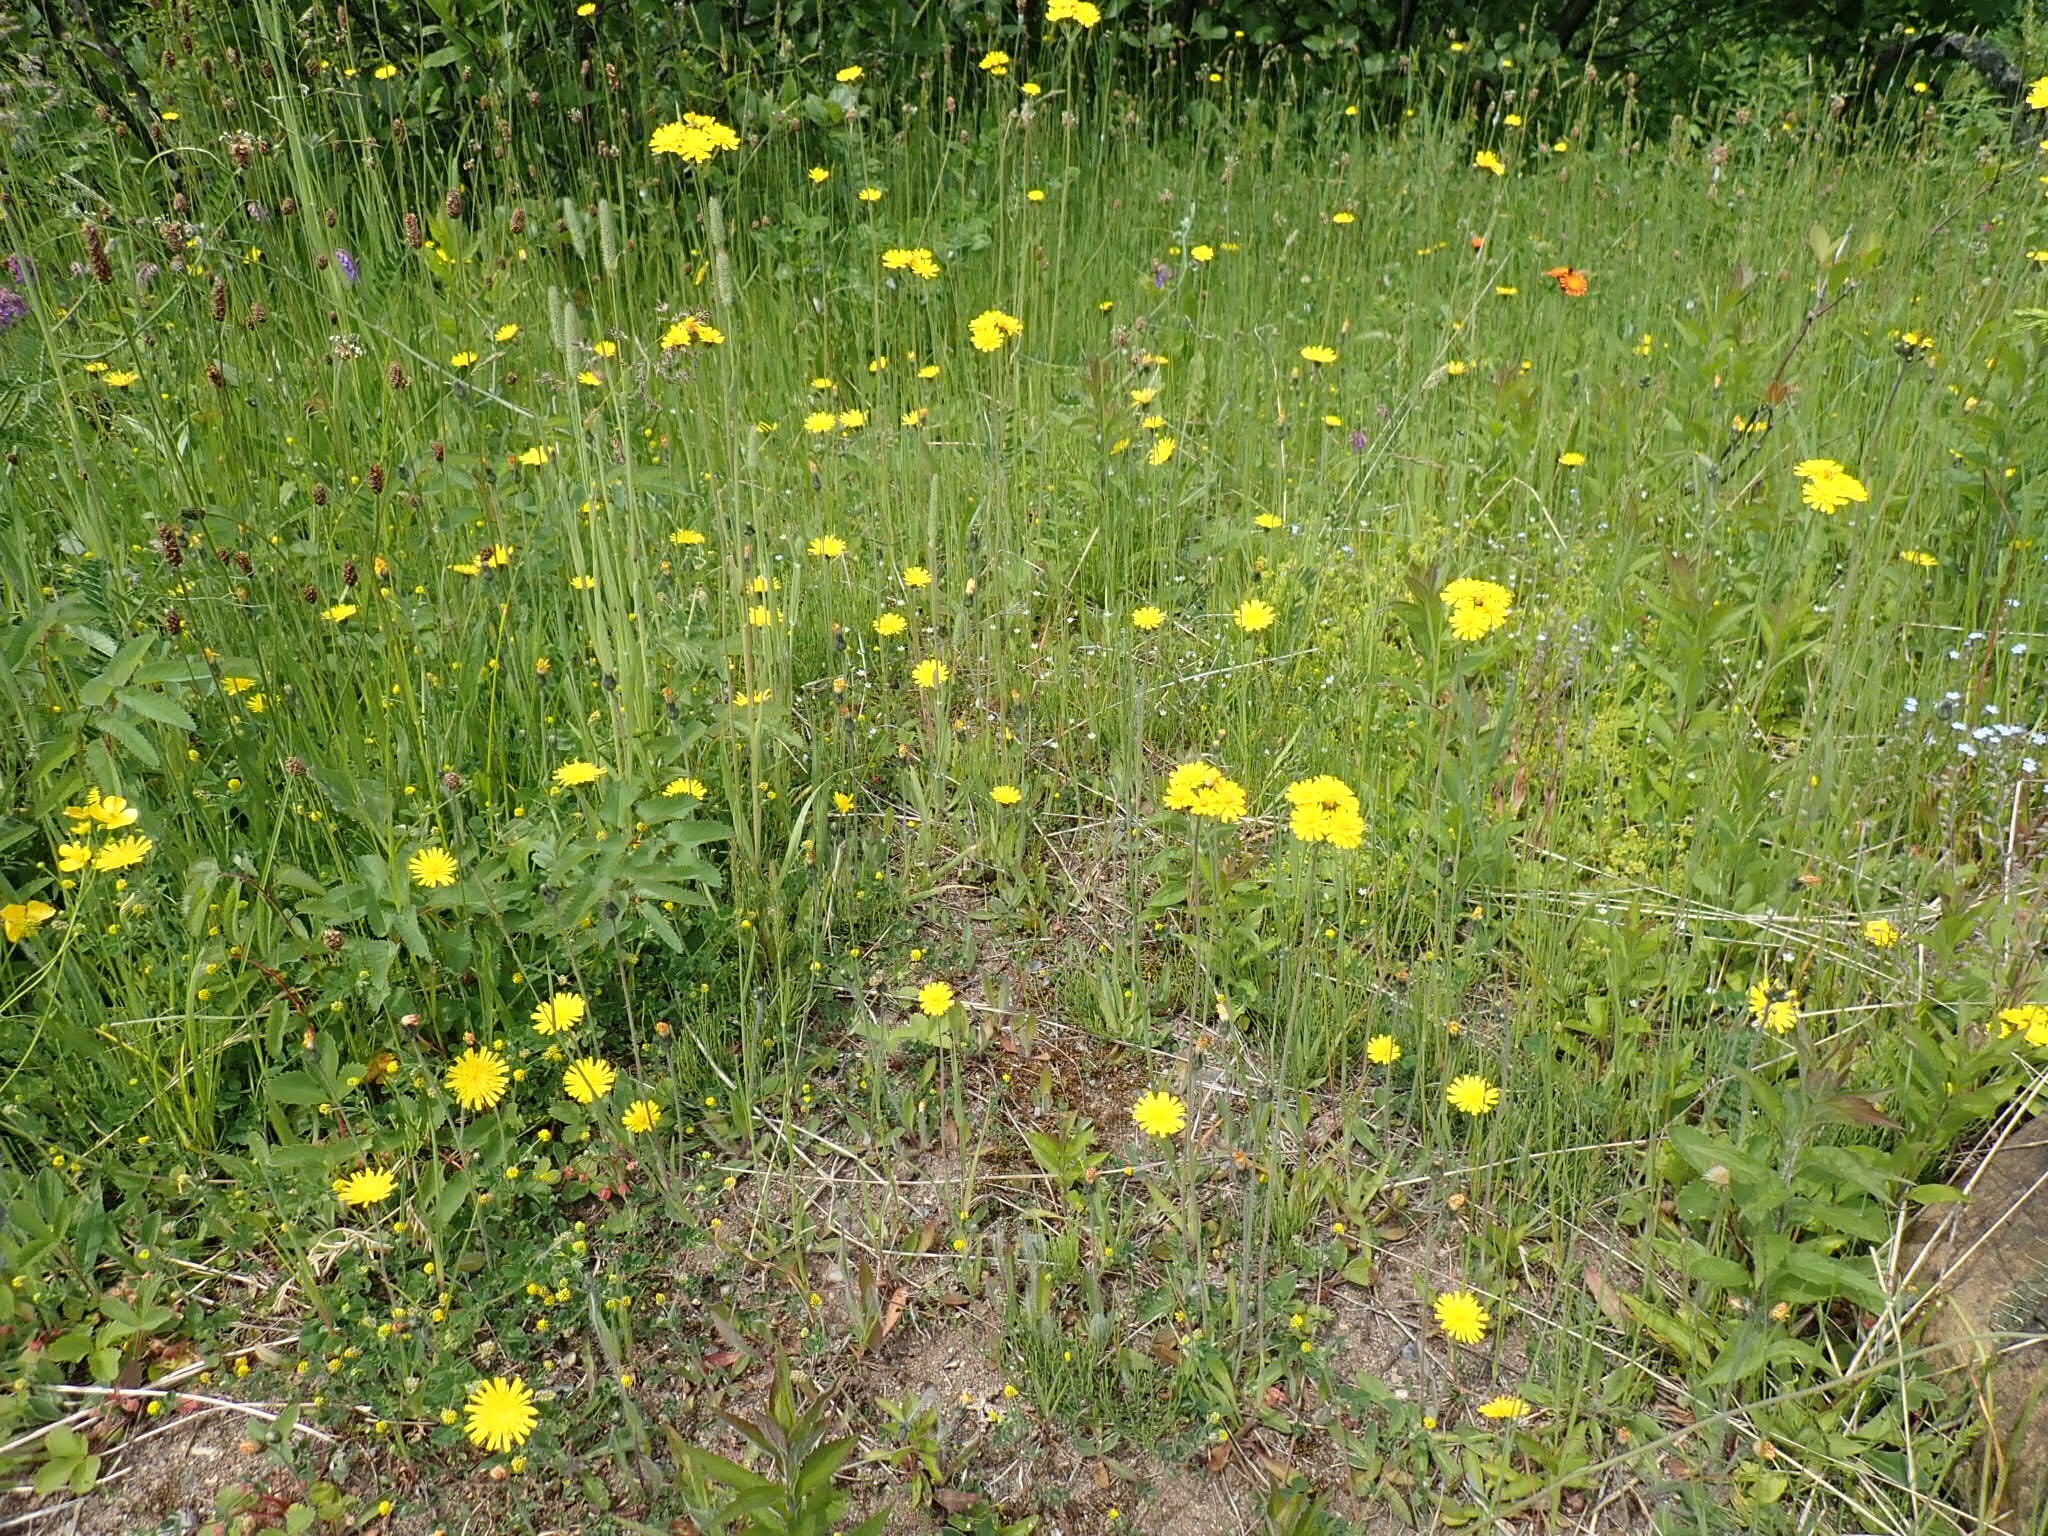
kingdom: Plantae
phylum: Tracheophyta
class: Magnoliopsida
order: Asterales
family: Asteraceae
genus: Pilosella
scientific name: Pilosella caespitosa
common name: Yellow fox-and-cubs
